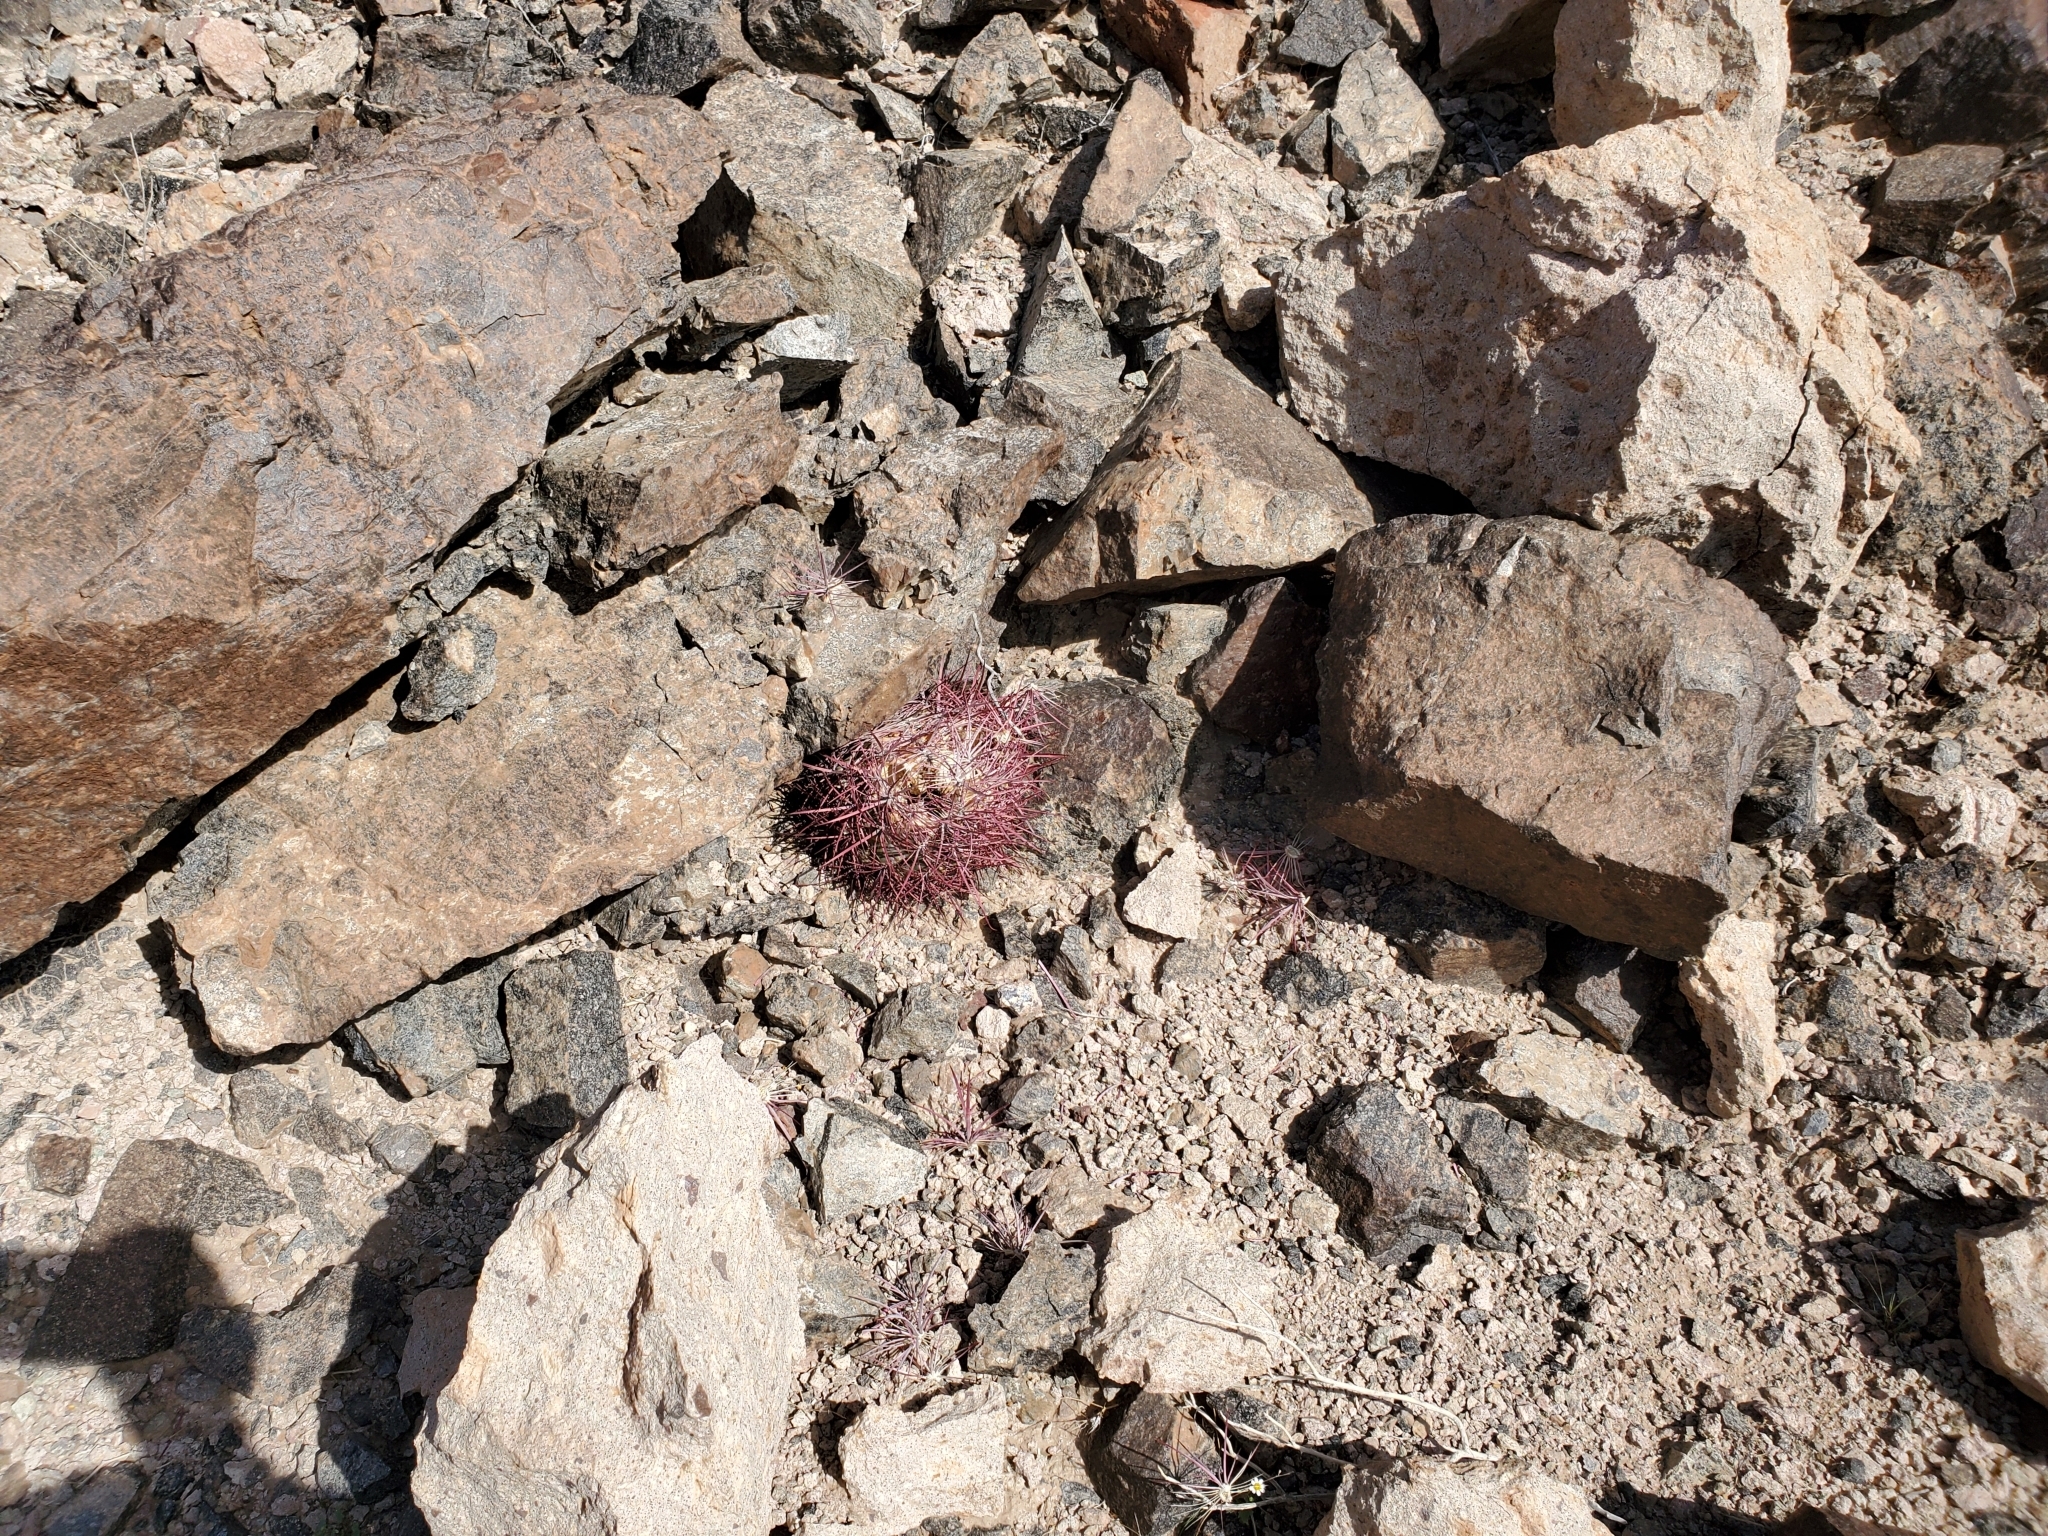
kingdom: Plantae
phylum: Tracheophyta
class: Magnoliopsida
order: Caryophyllales
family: Cactaceae
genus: Ferocactus
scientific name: Ferocactus cylindraceus
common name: California barrel cactus
